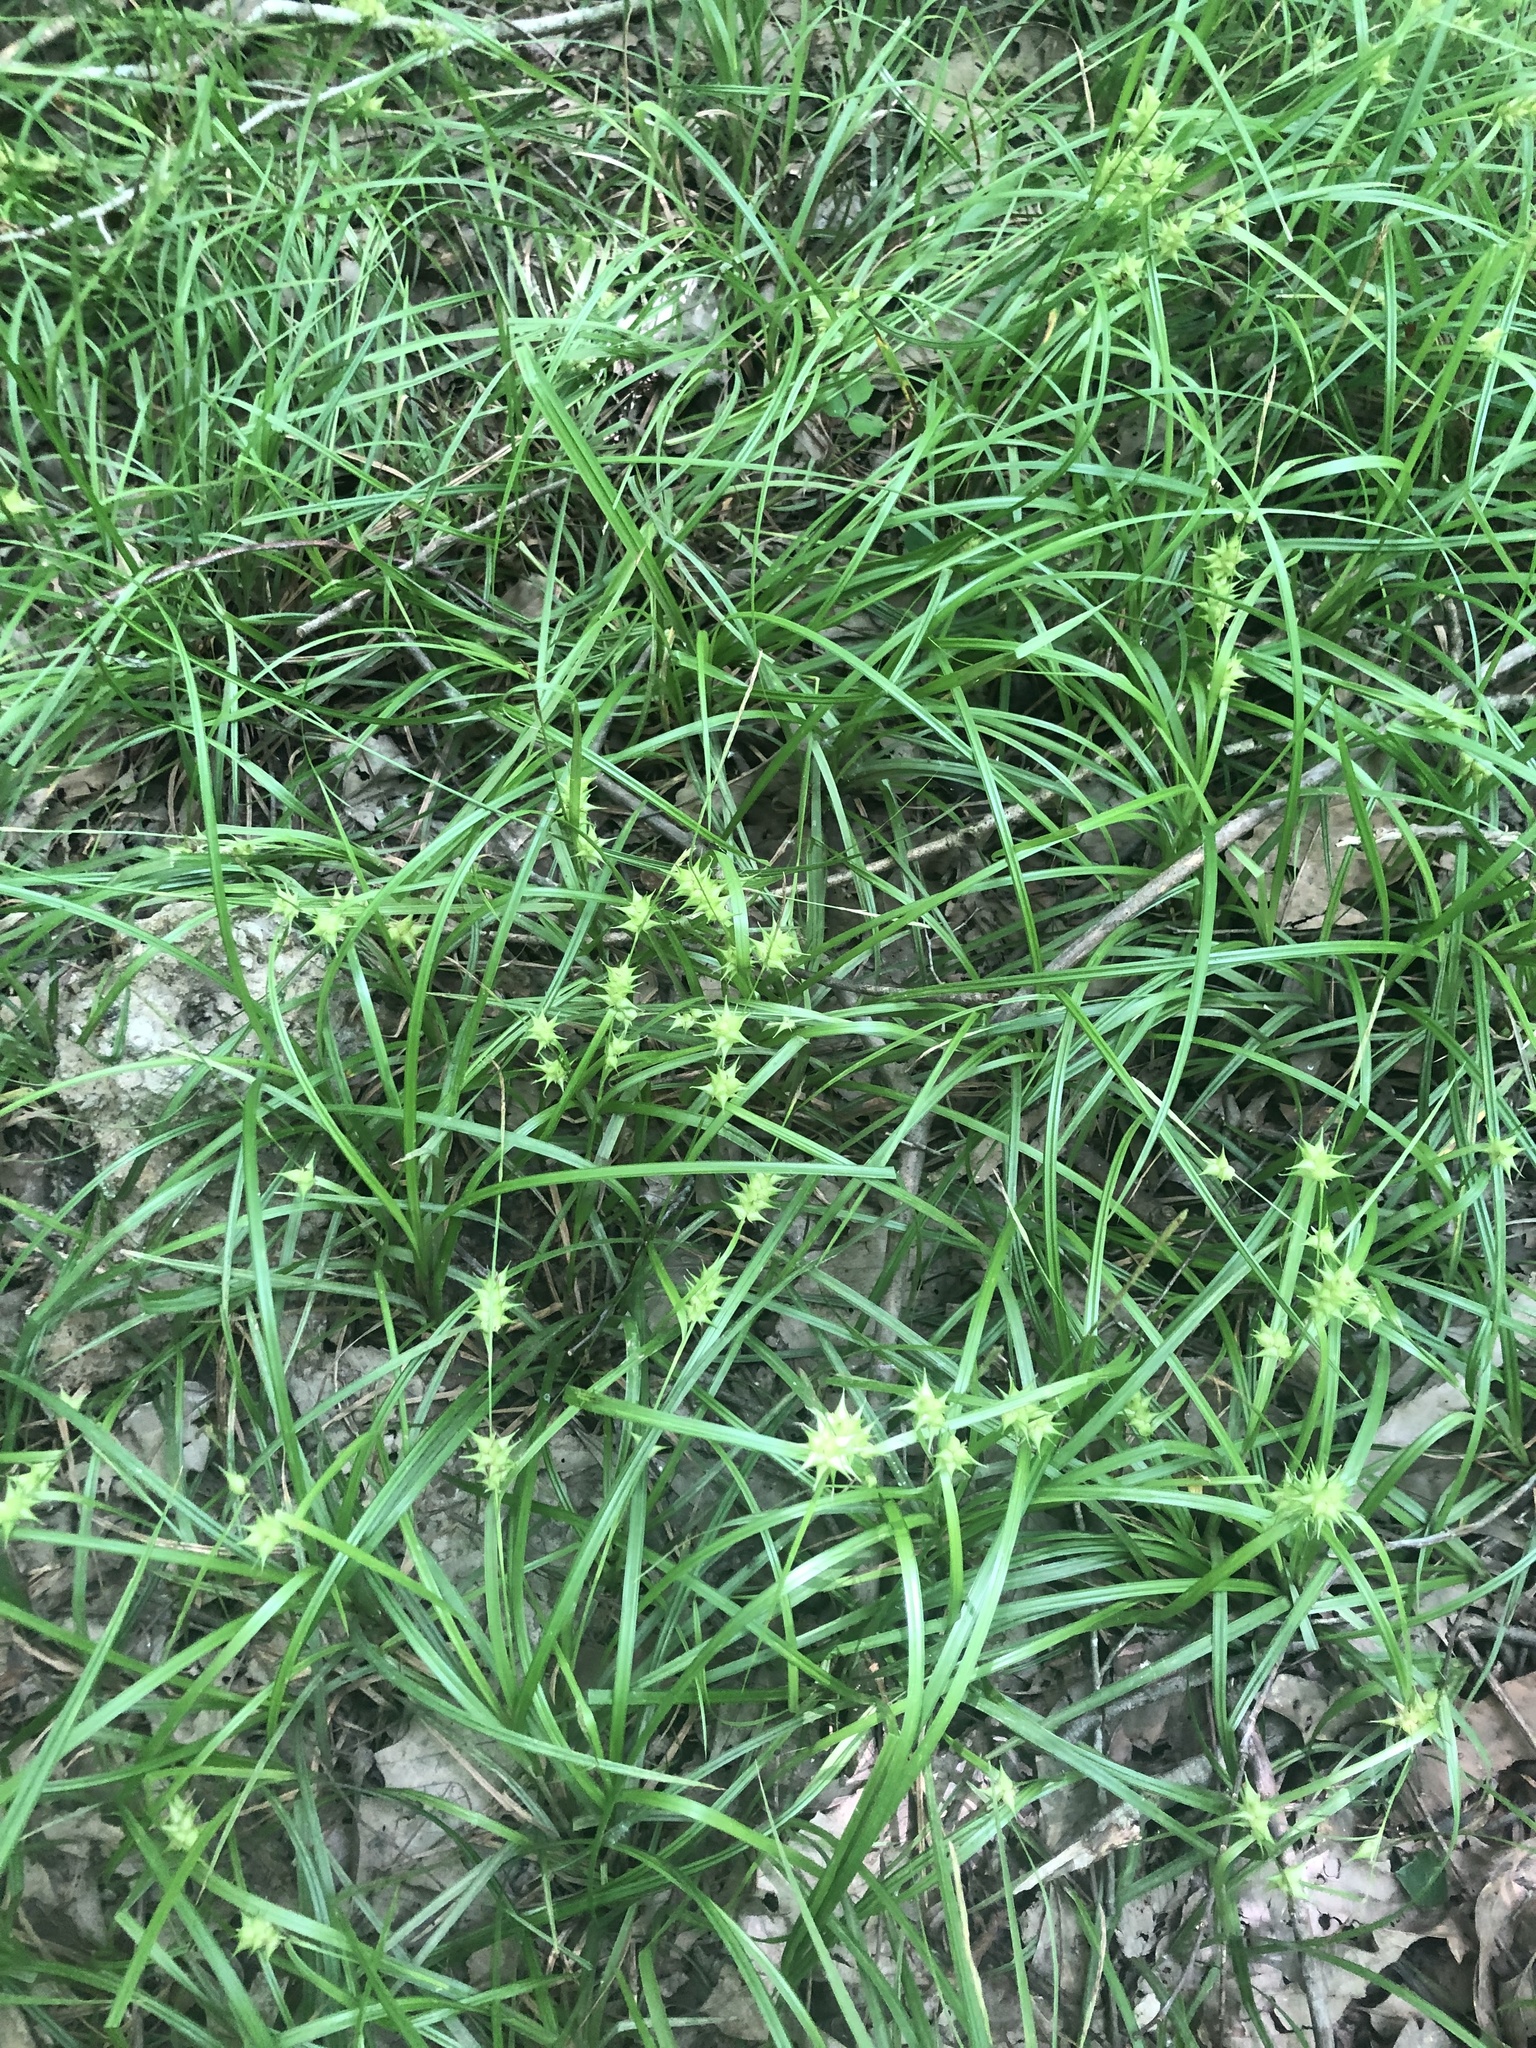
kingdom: Plantae
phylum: Tracheophyta
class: Liliopsida
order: Poales
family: Cyperaceae
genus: Carex
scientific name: Carex louisianica
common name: Louisiana sedge
